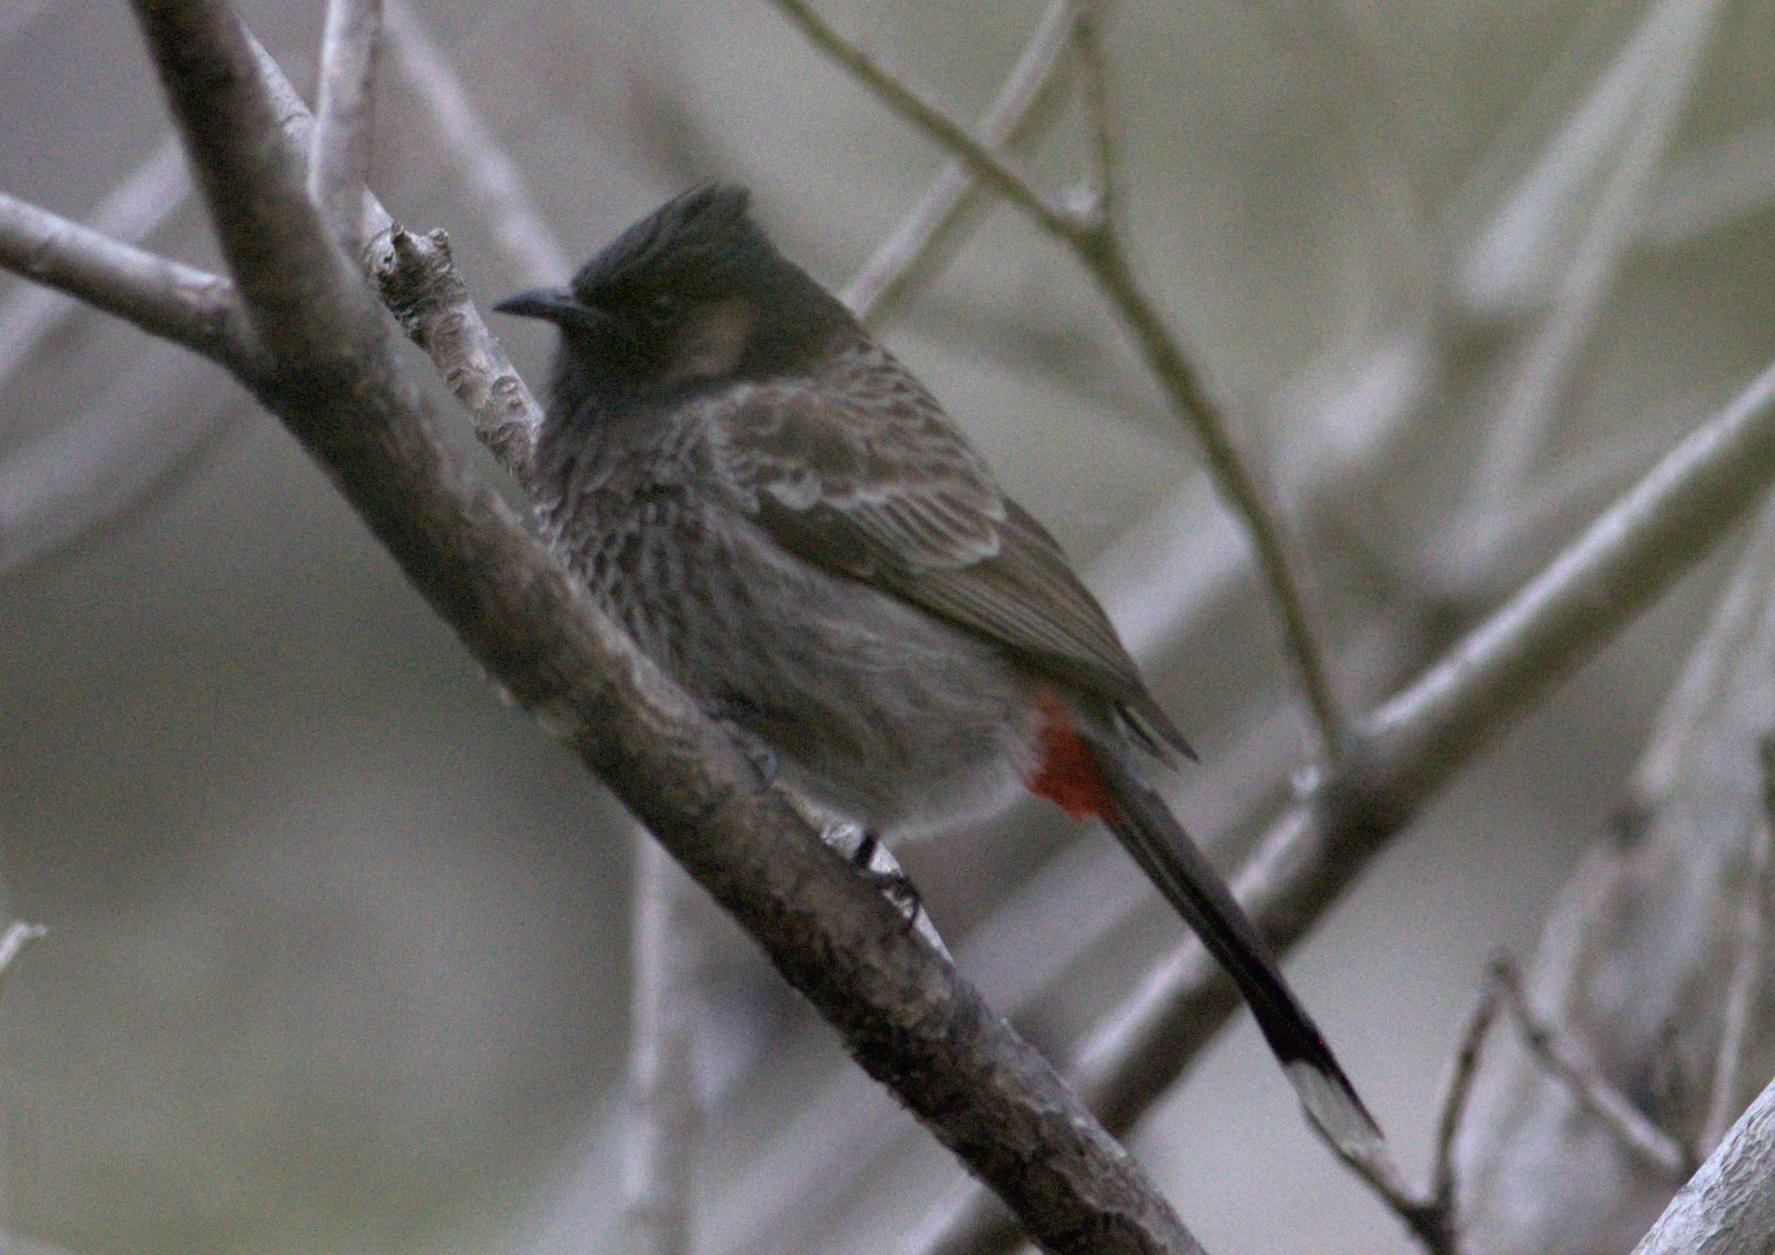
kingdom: Animalia
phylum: Chordata
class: Aves
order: Passeriformes
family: Pycnonotidae
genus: Pycnonotus
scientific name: Pycnonotus cafer
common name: Red-vented bulbul
